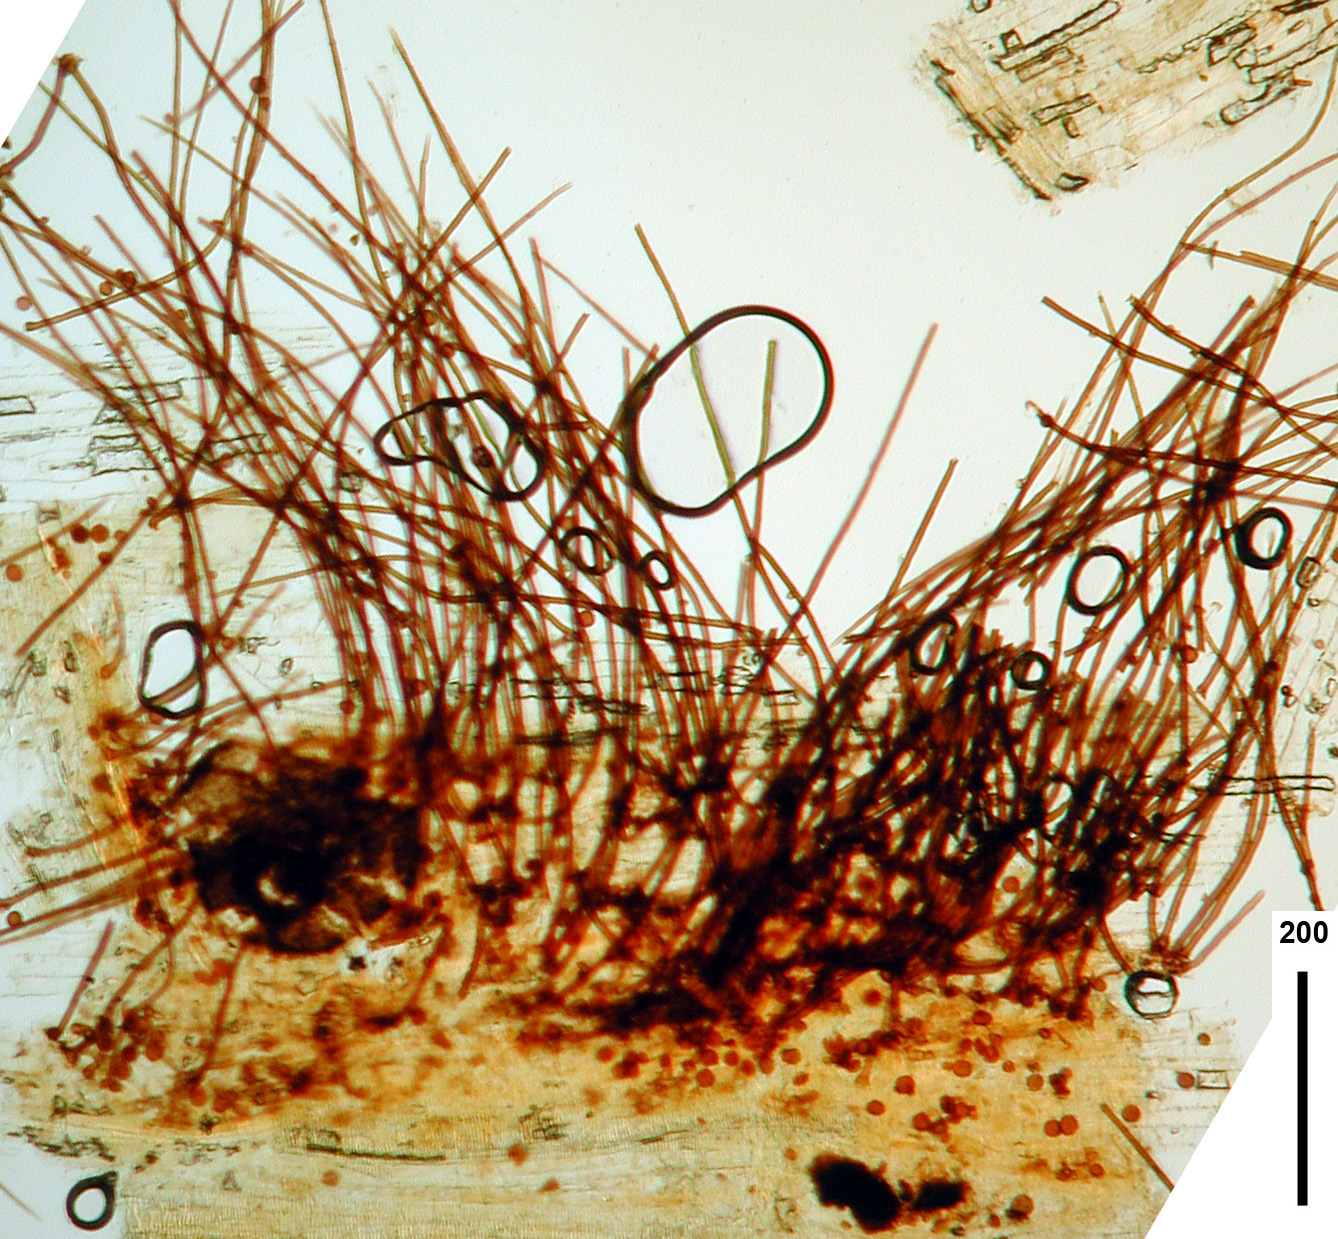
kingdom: Fungi
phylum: Ascomycota
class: Dothideomycetes
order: Pleosporales
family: Periconiaceae
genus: Periconia
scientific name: Periconia hispidula
